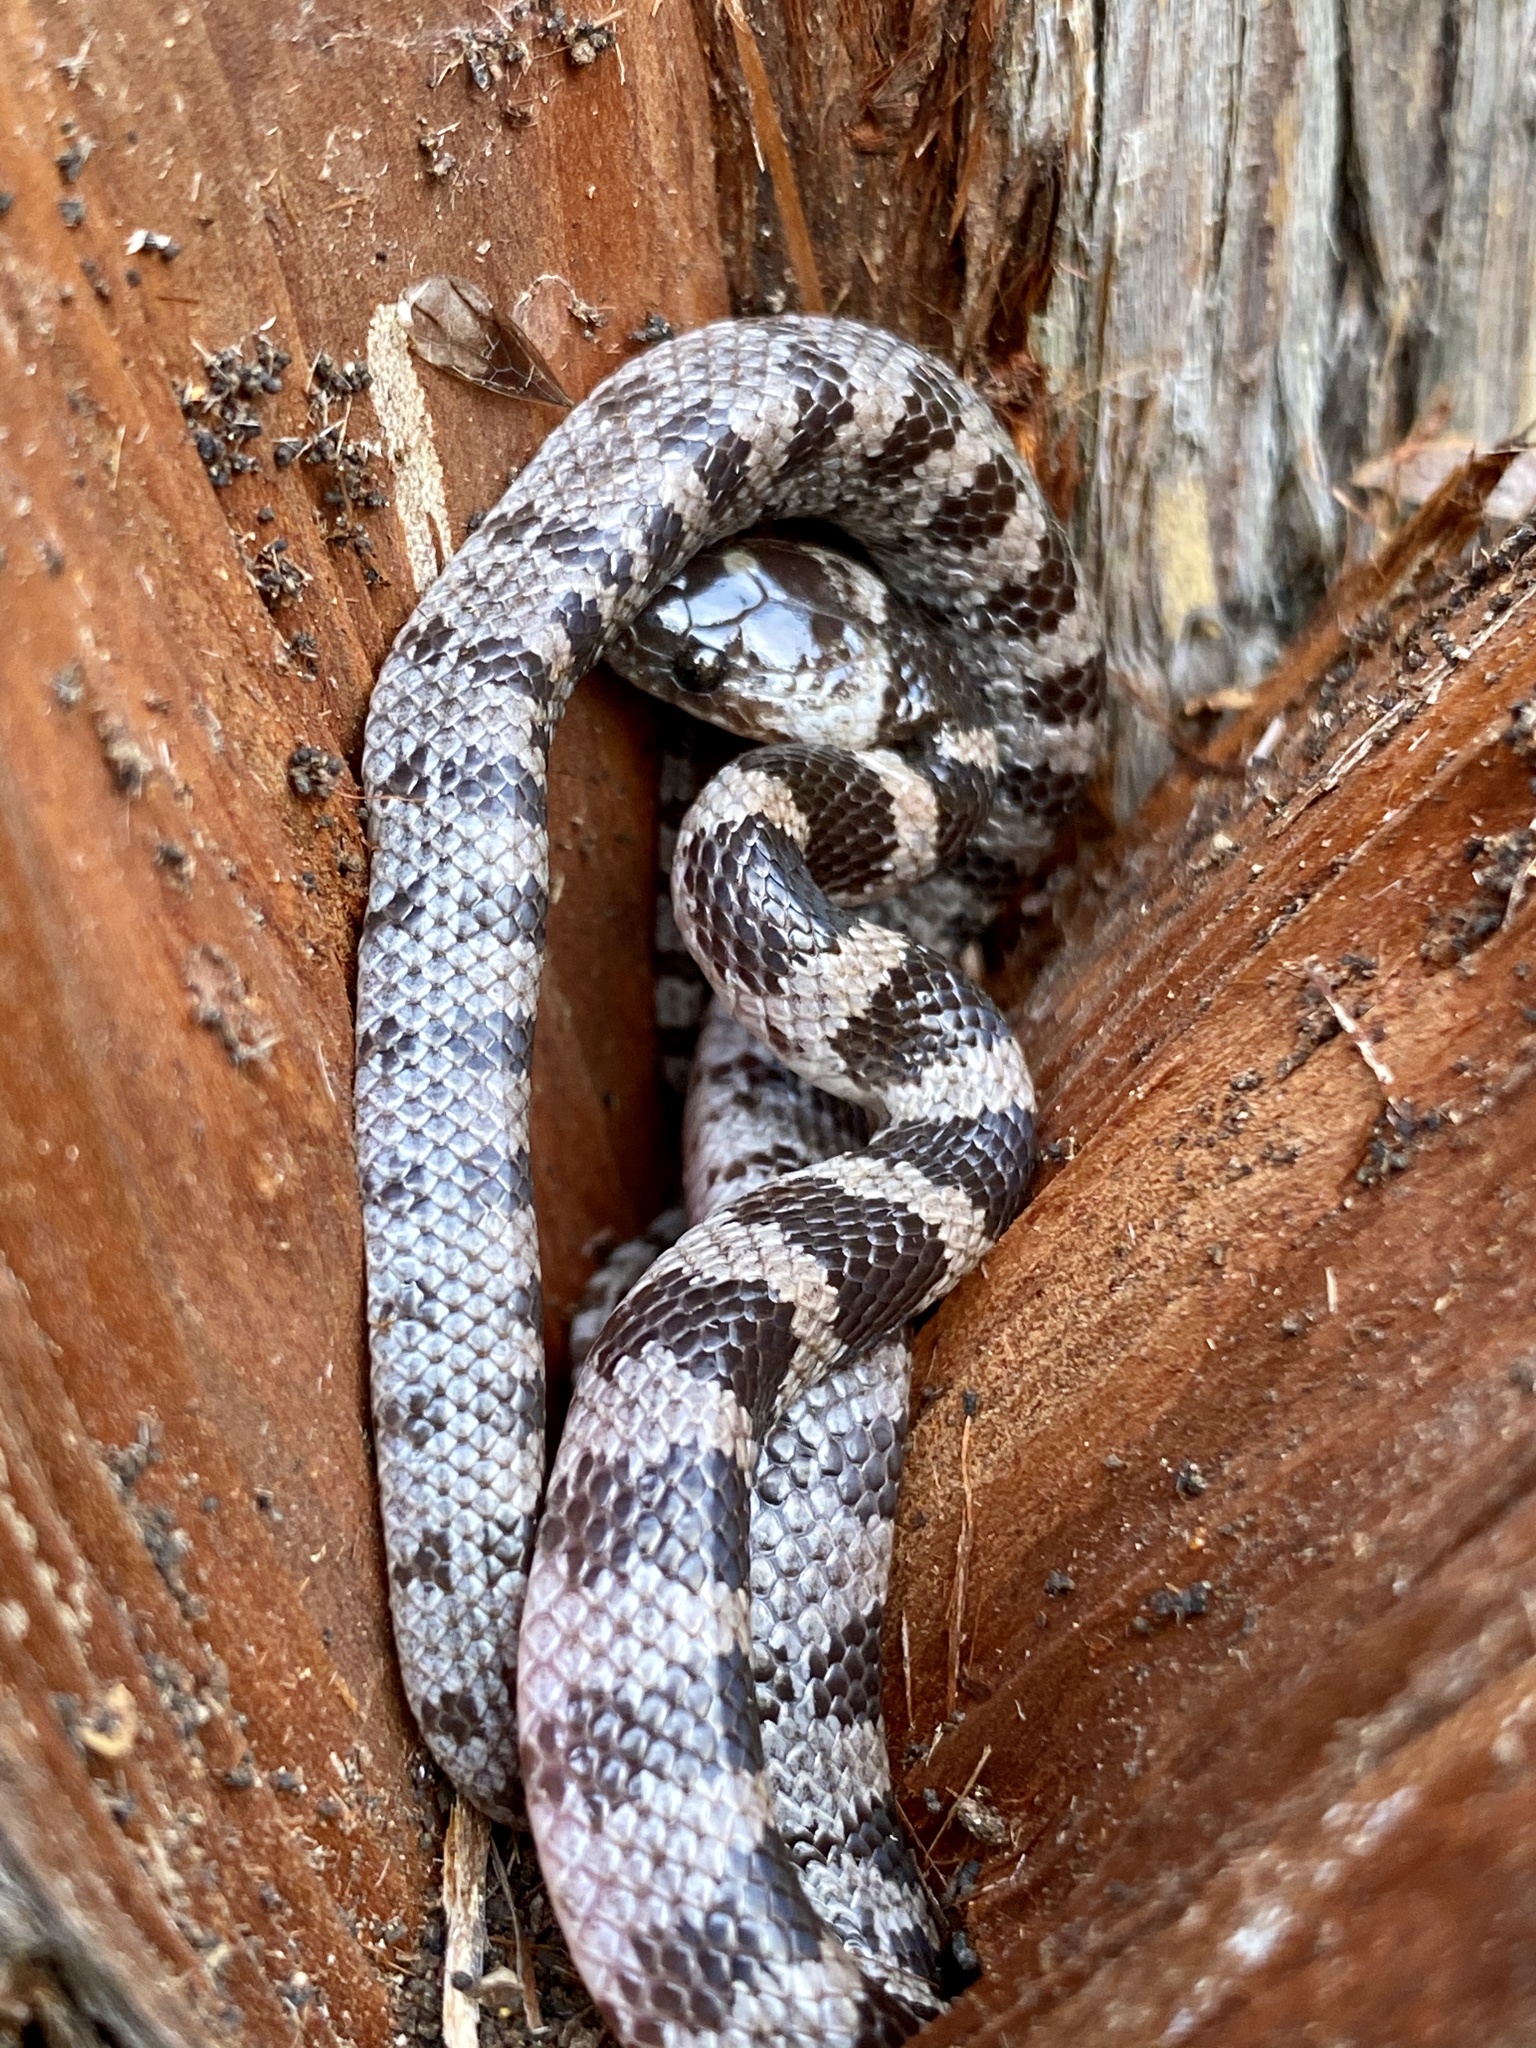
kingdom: Animalia
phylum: Chordata
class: Squamata
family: Colubridae
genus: Lycodon
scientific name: Lycodon orientalis
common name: Oriental odd-tooth snake
